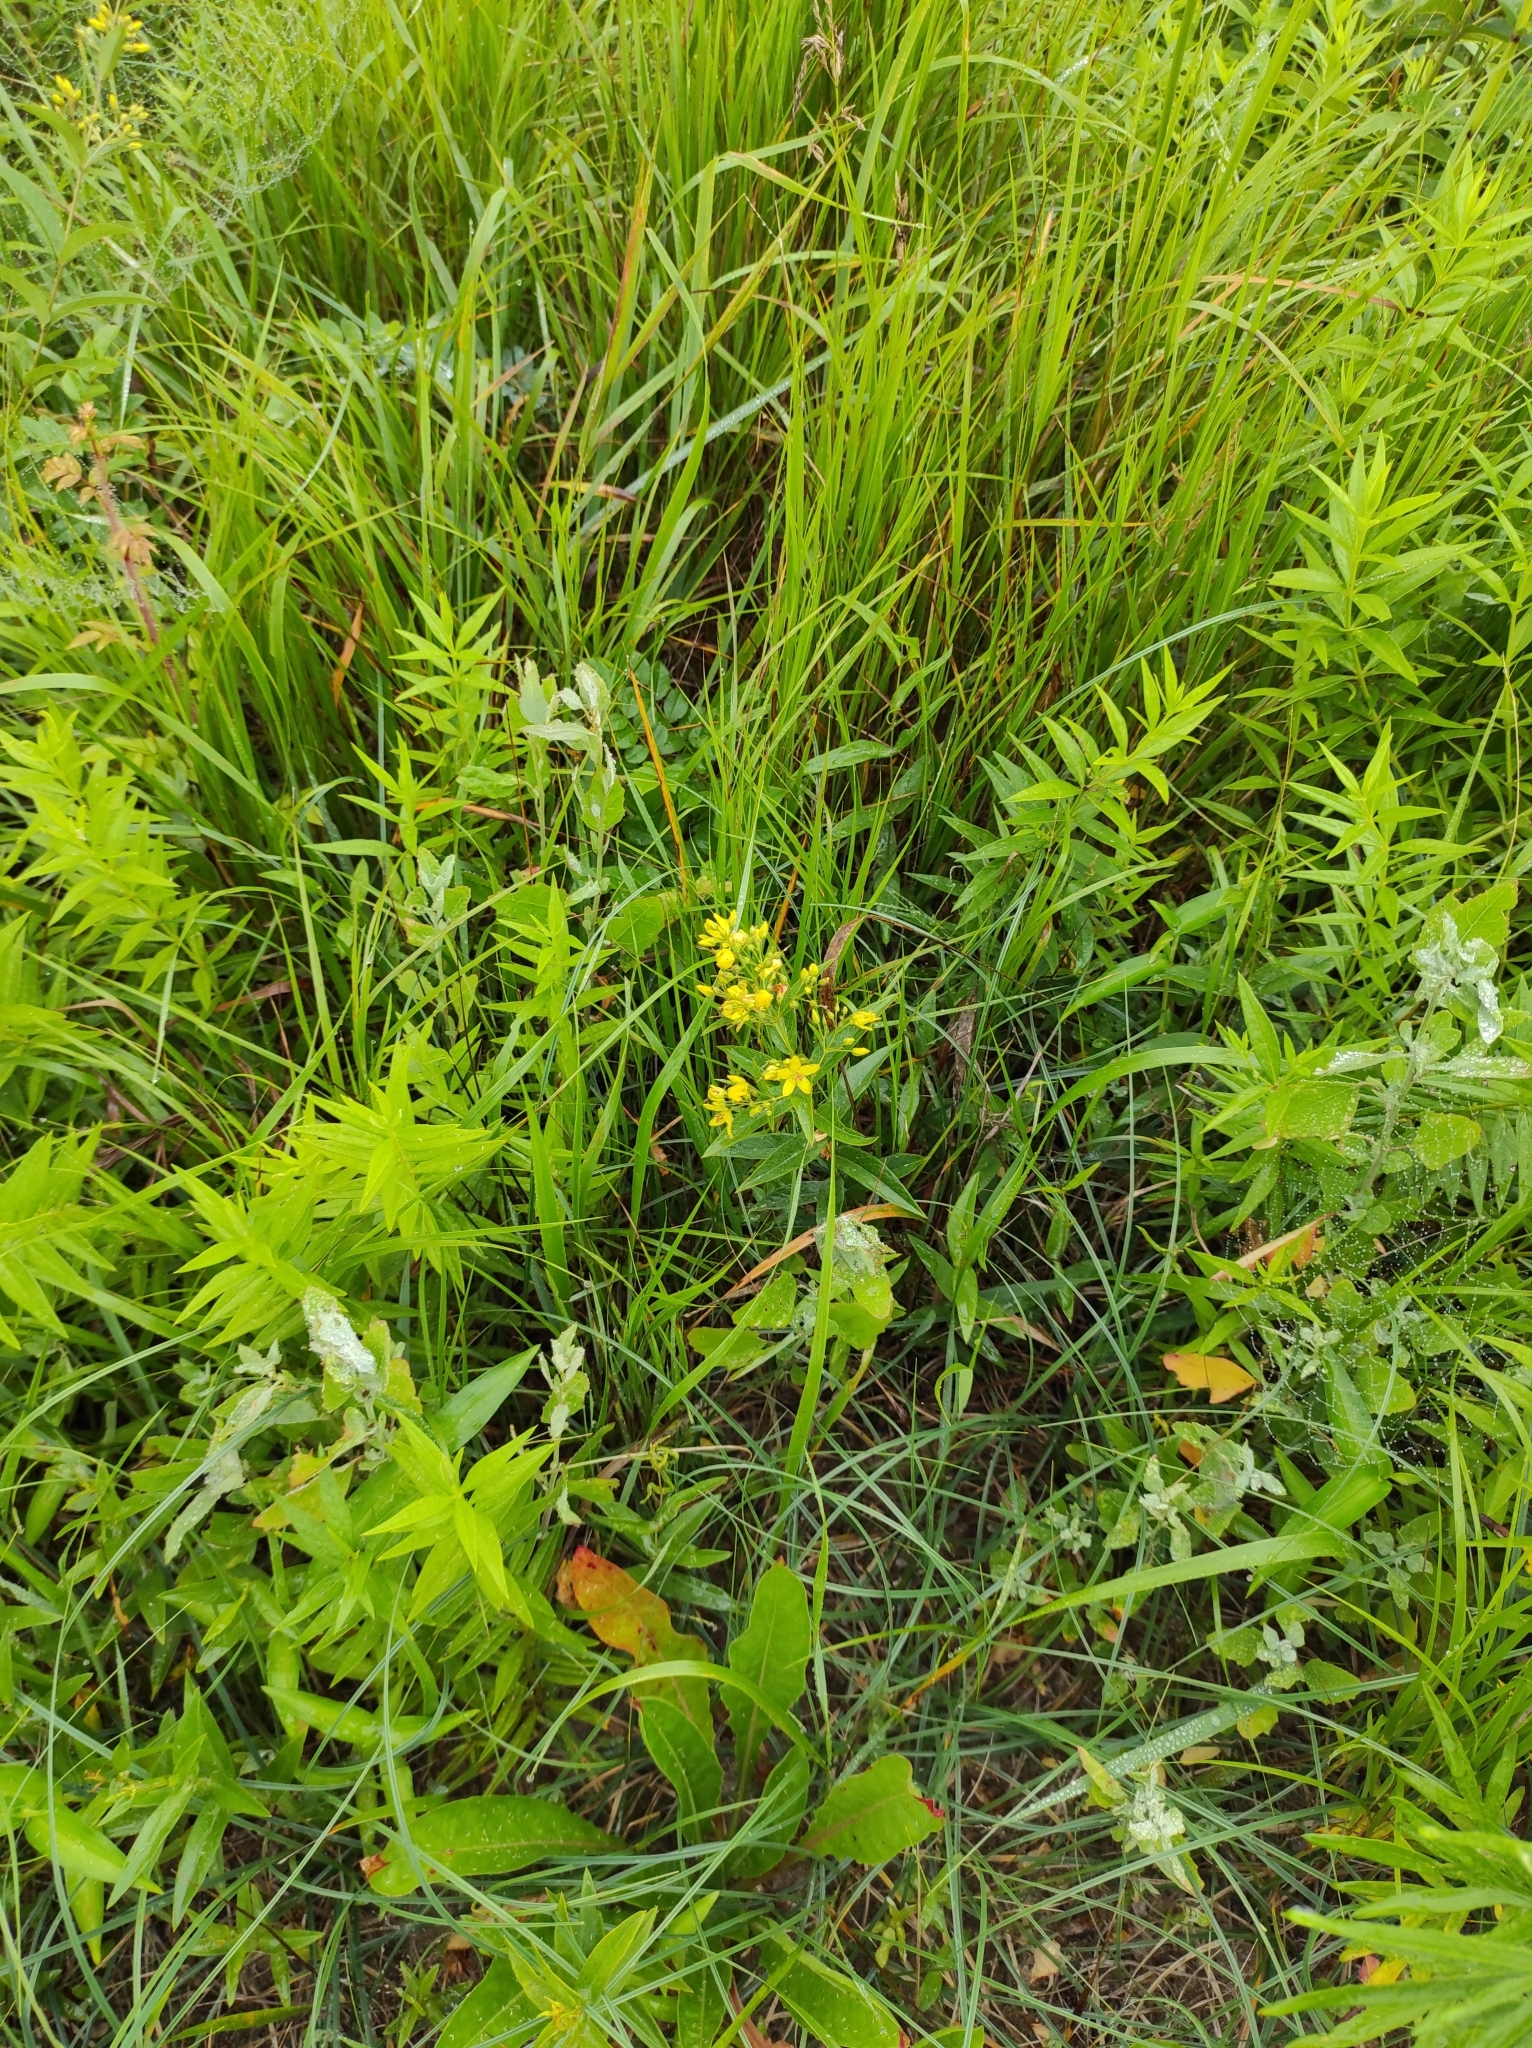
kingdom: Plantae
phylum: Tracheophyta
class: Magnoliopsida
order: Ericales
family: Primulaceae
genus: Lysimachia
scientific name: Lysimachia davurica
